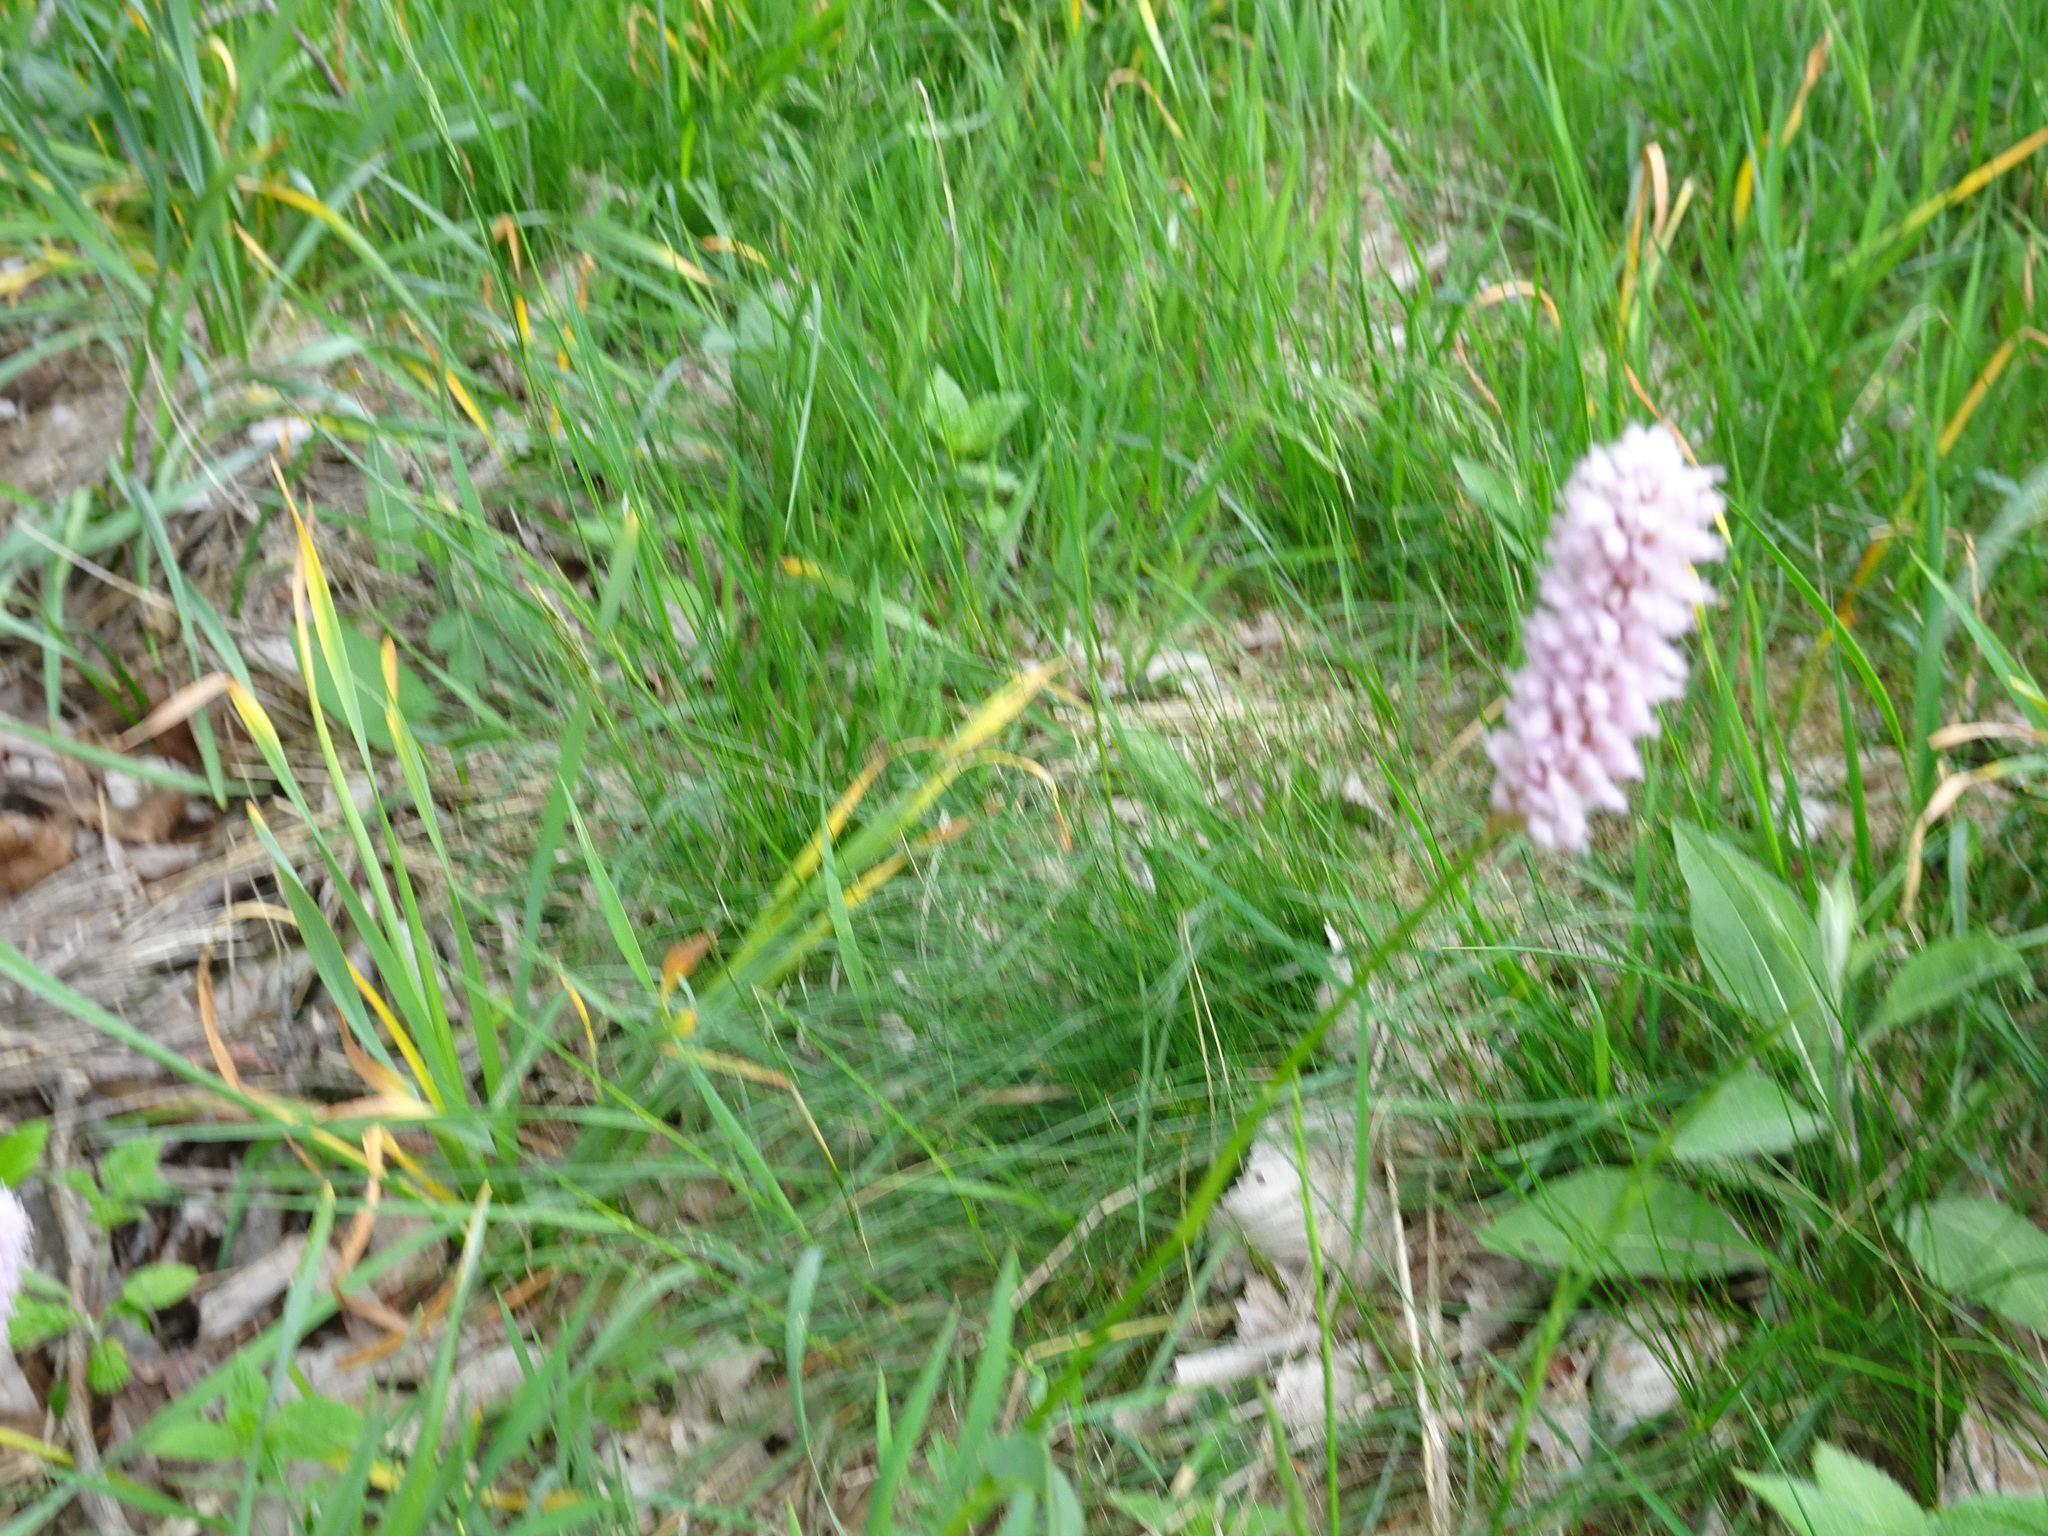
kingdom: Plantae
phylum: Tracheophyta
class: Magnoliopsida
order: Caryophyllales
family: Polygonaceae
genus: Bistorta
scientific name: Bistorta officinalis
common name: Common bistort
